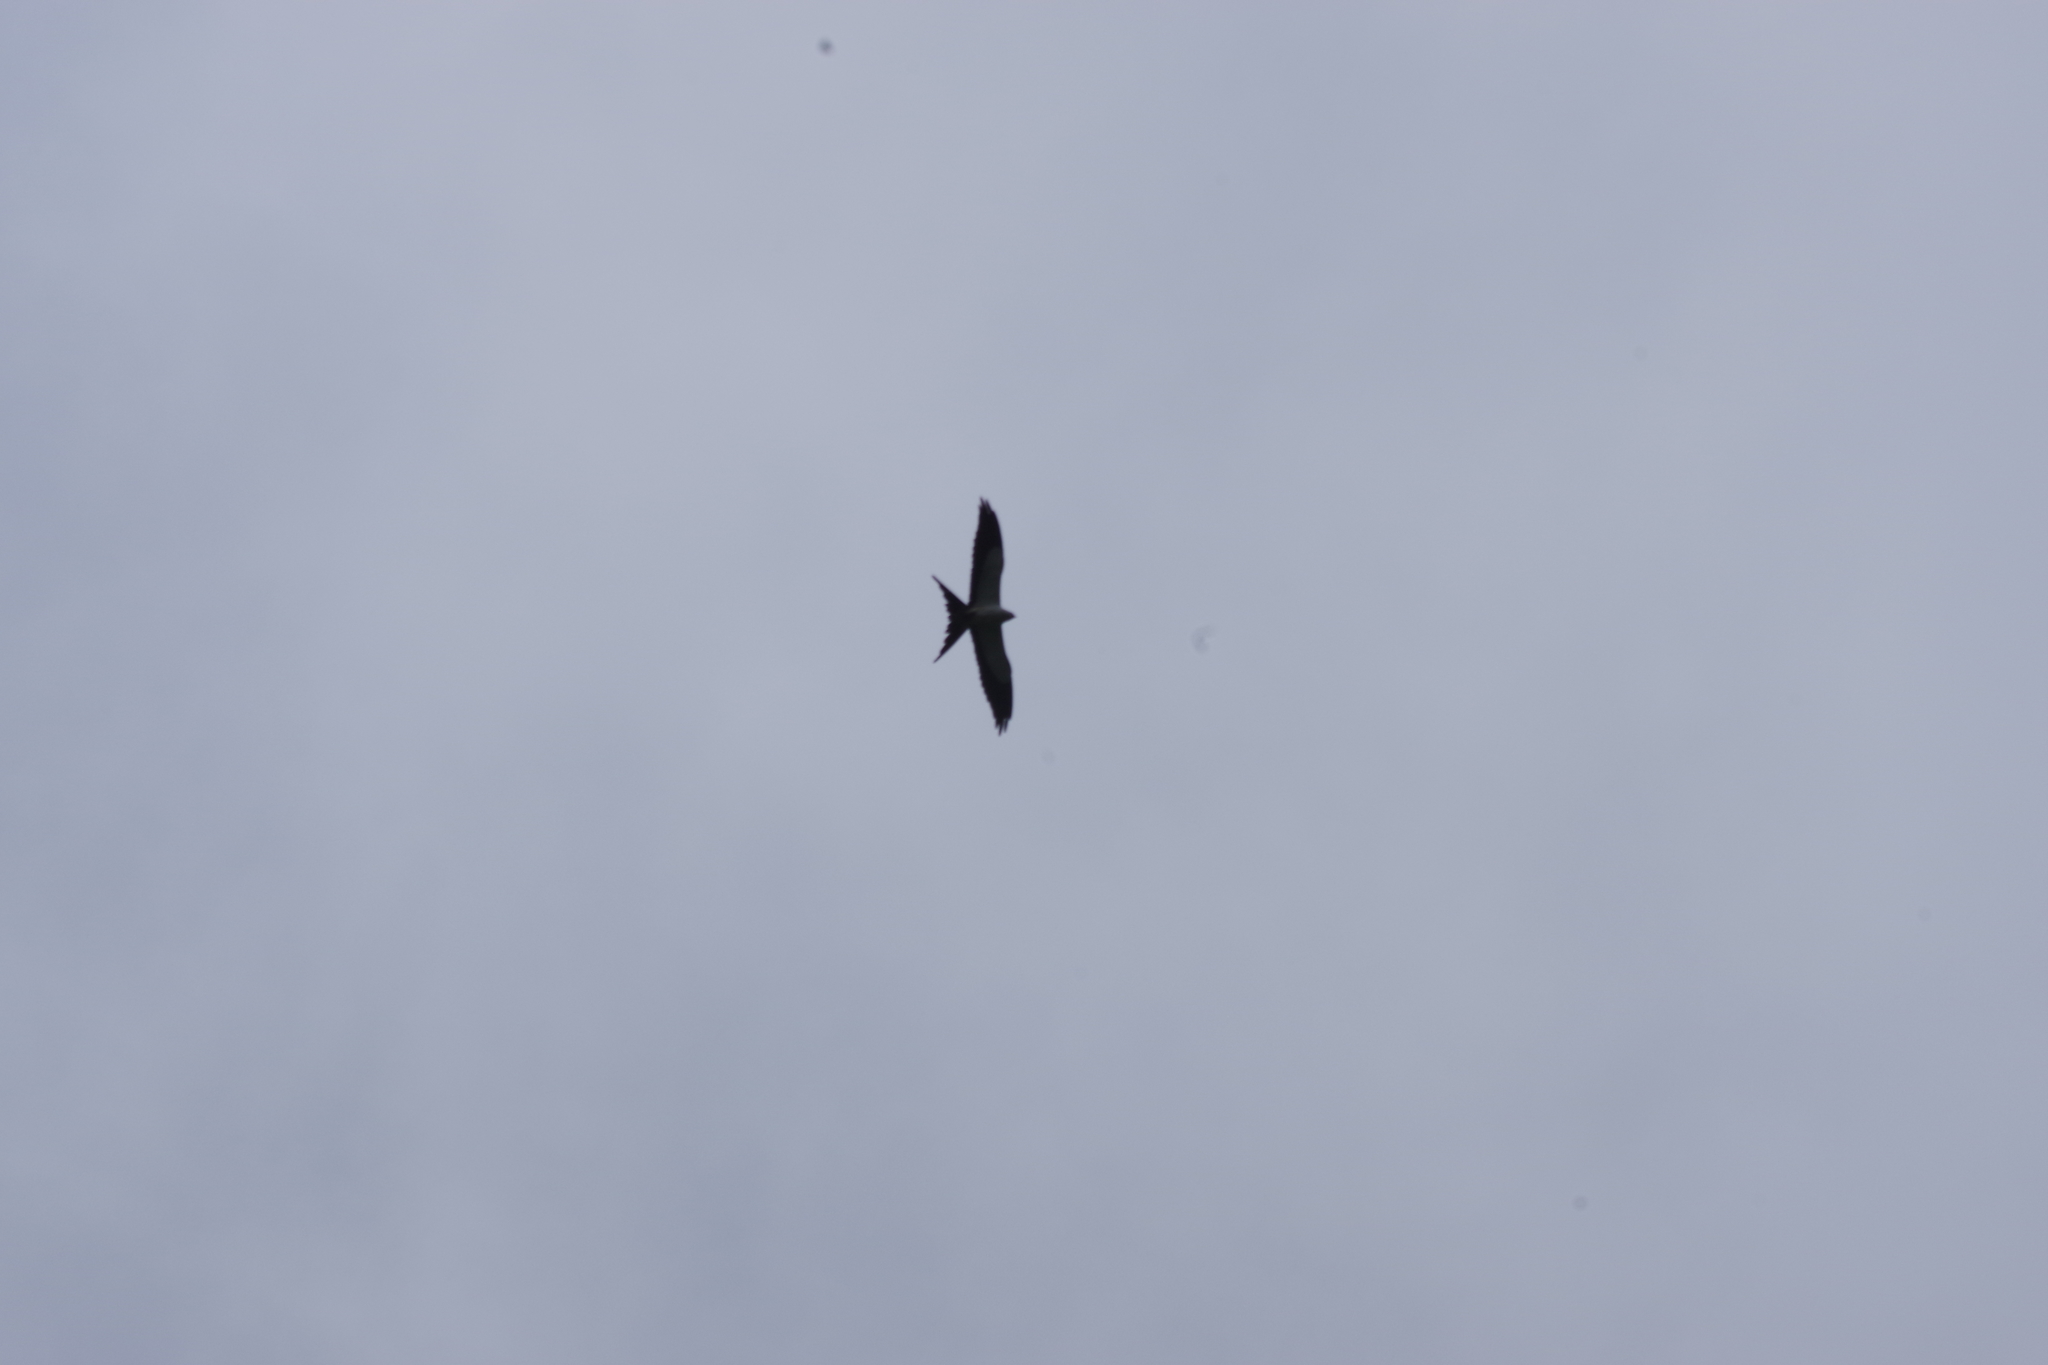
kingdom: Animalia
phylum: Chordata
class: Aves
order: Accipitriformes
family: Accipitridae
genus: Elanoides
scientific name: Elanoides forficatus
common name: Swallow-tailed kite
